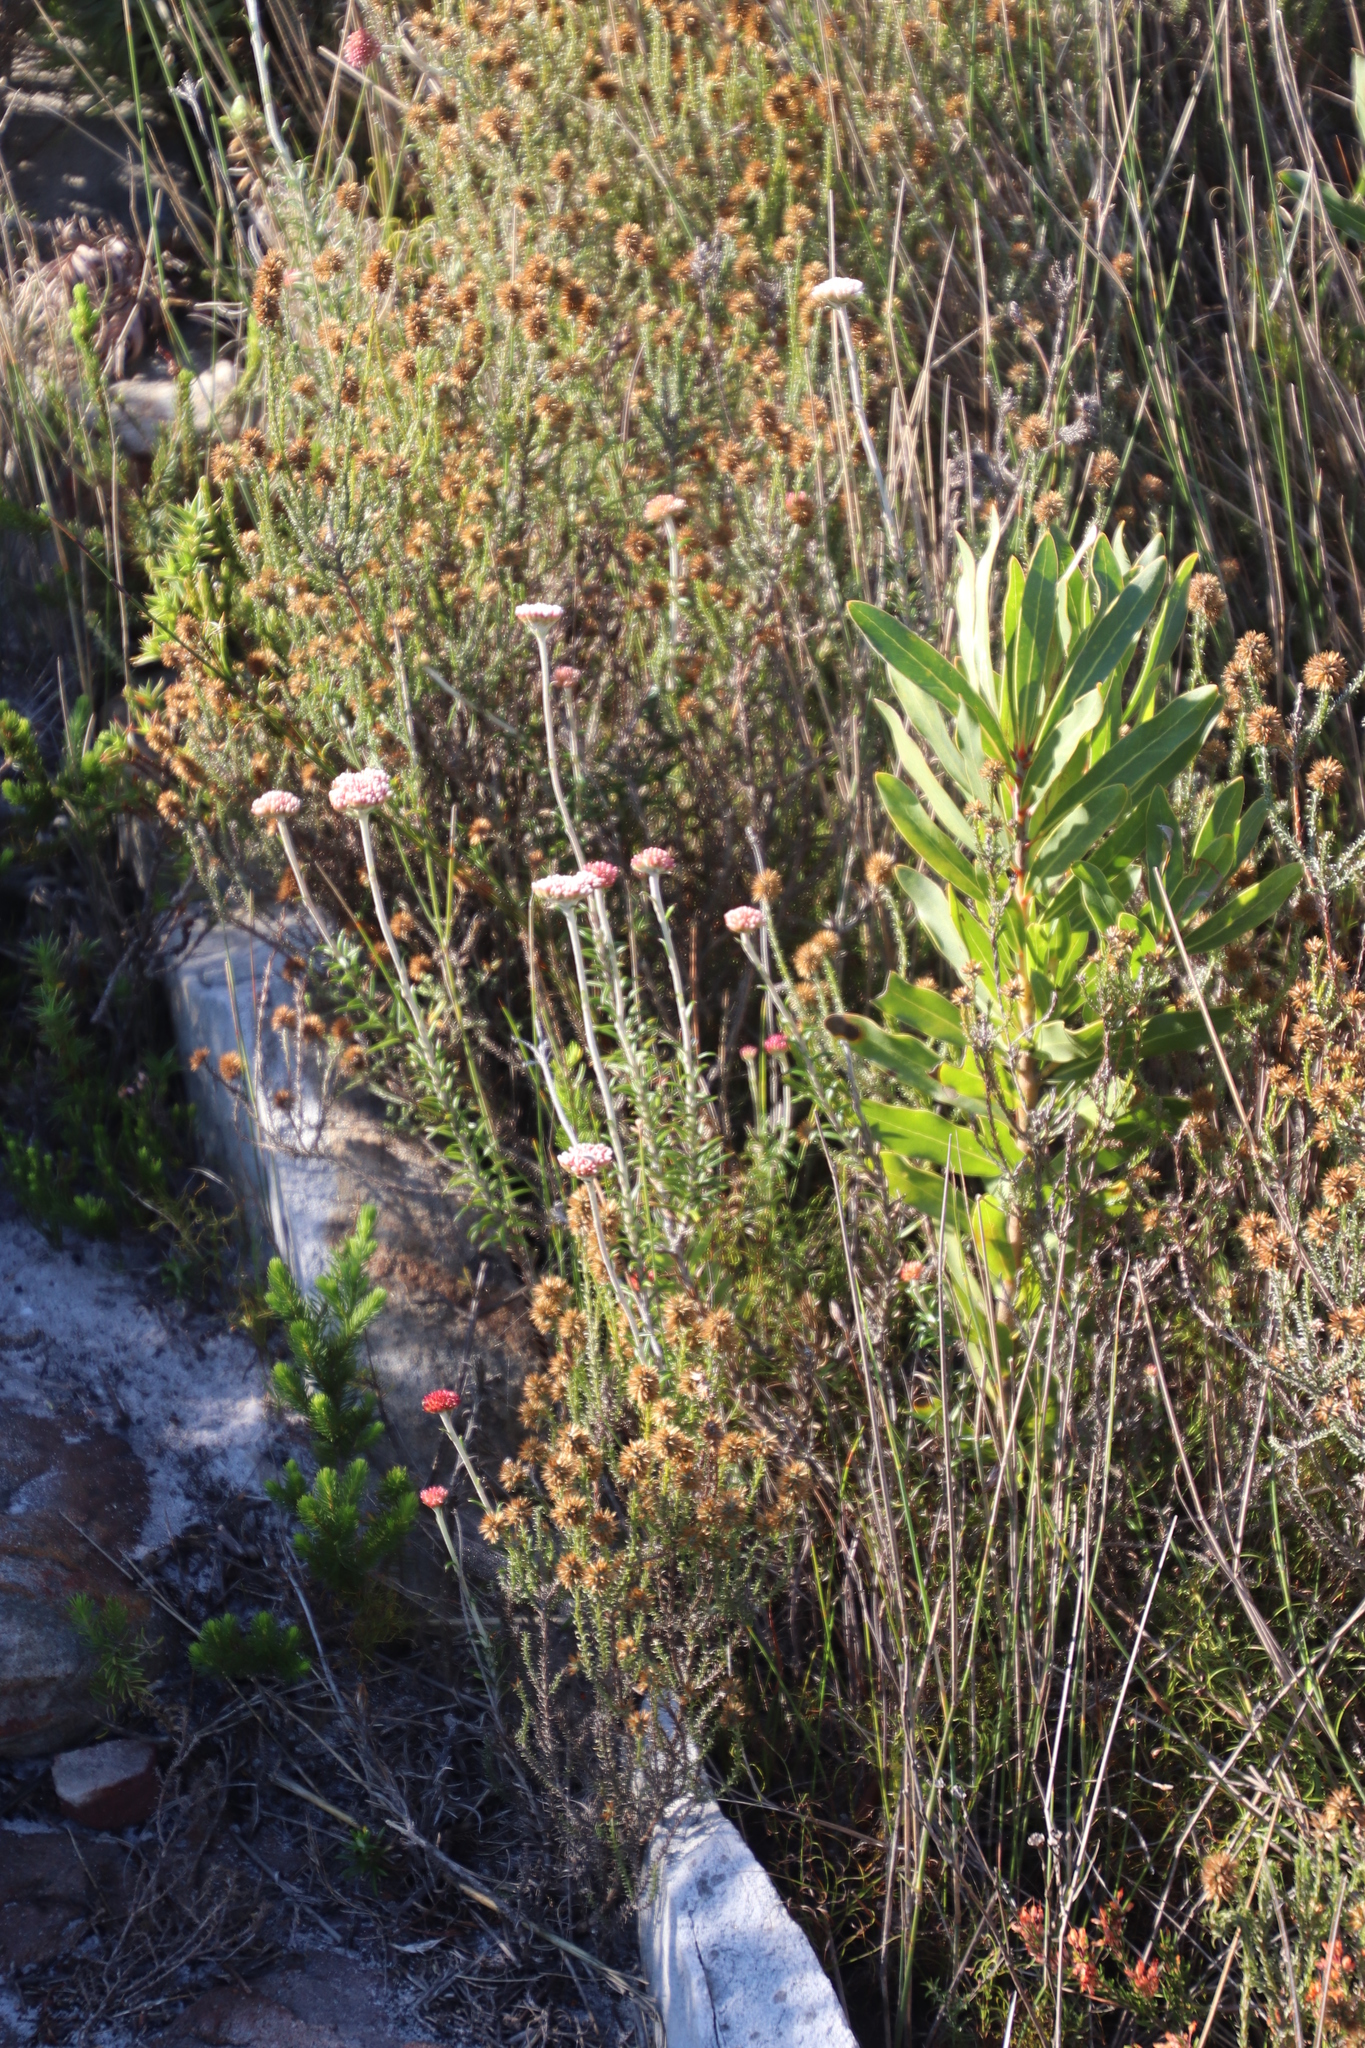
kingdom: Plantae
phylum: Tracheophyta
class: Magnoliopsida
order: Asterales
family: Asteraceae
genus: Anaxeton
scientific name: Anaxeton arborescens
